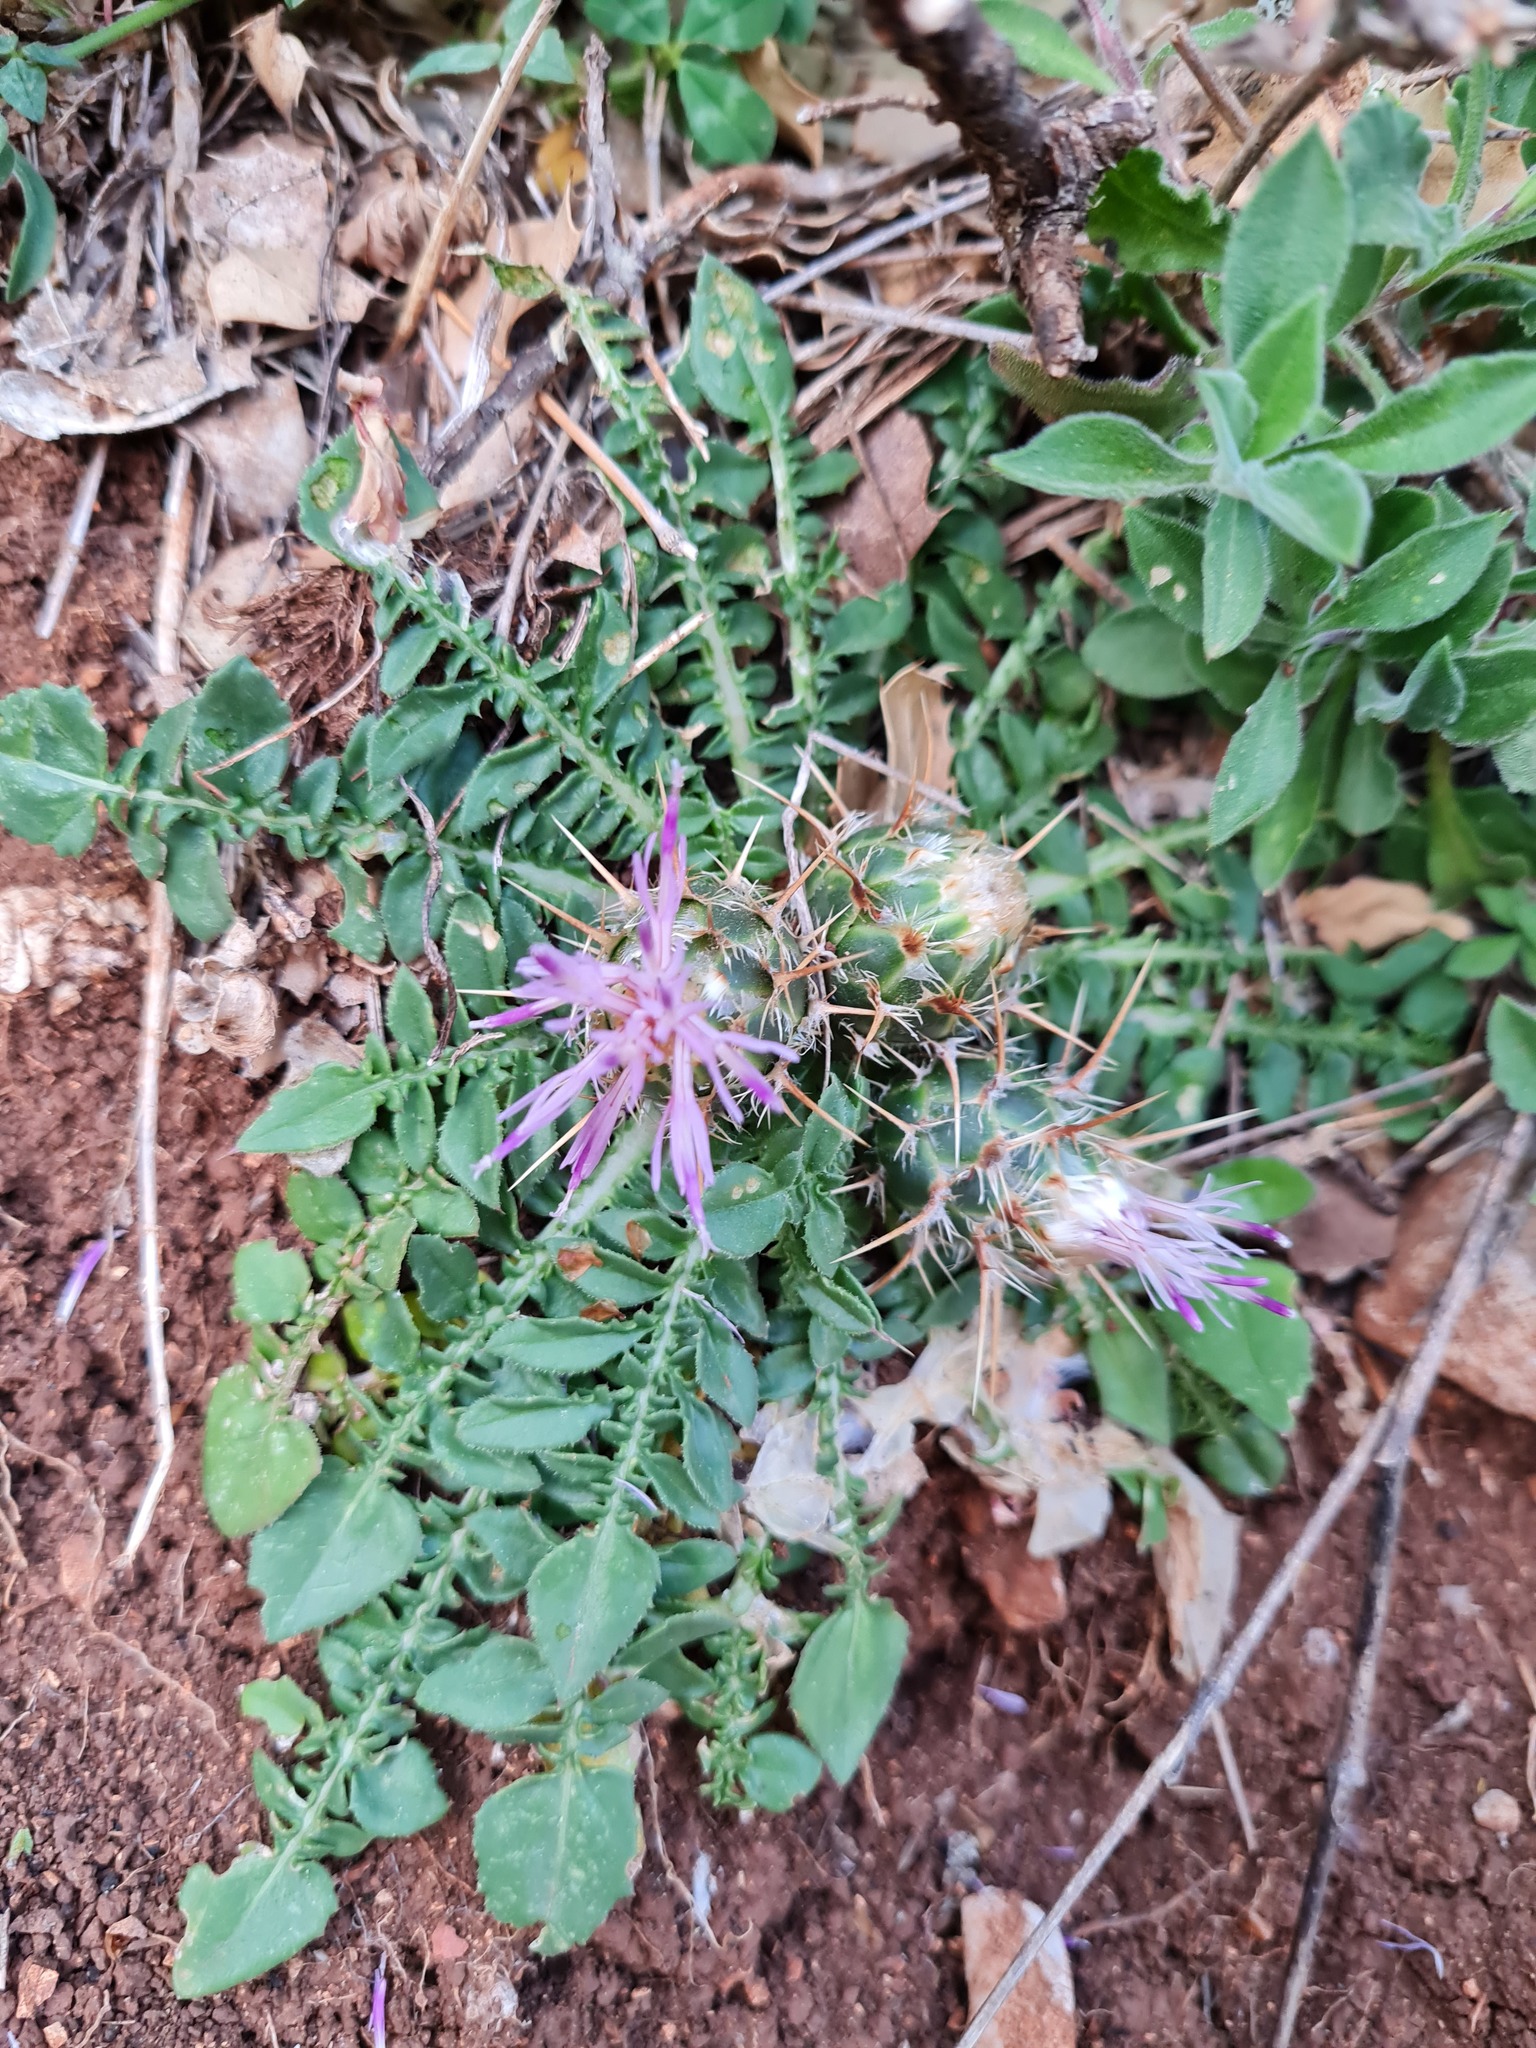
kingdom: Plantae
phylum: Tracheophyta
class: Magnoliopsida
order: Asterales
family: Asteraceae
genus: Centaurea
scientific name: Centaurea raphanina
